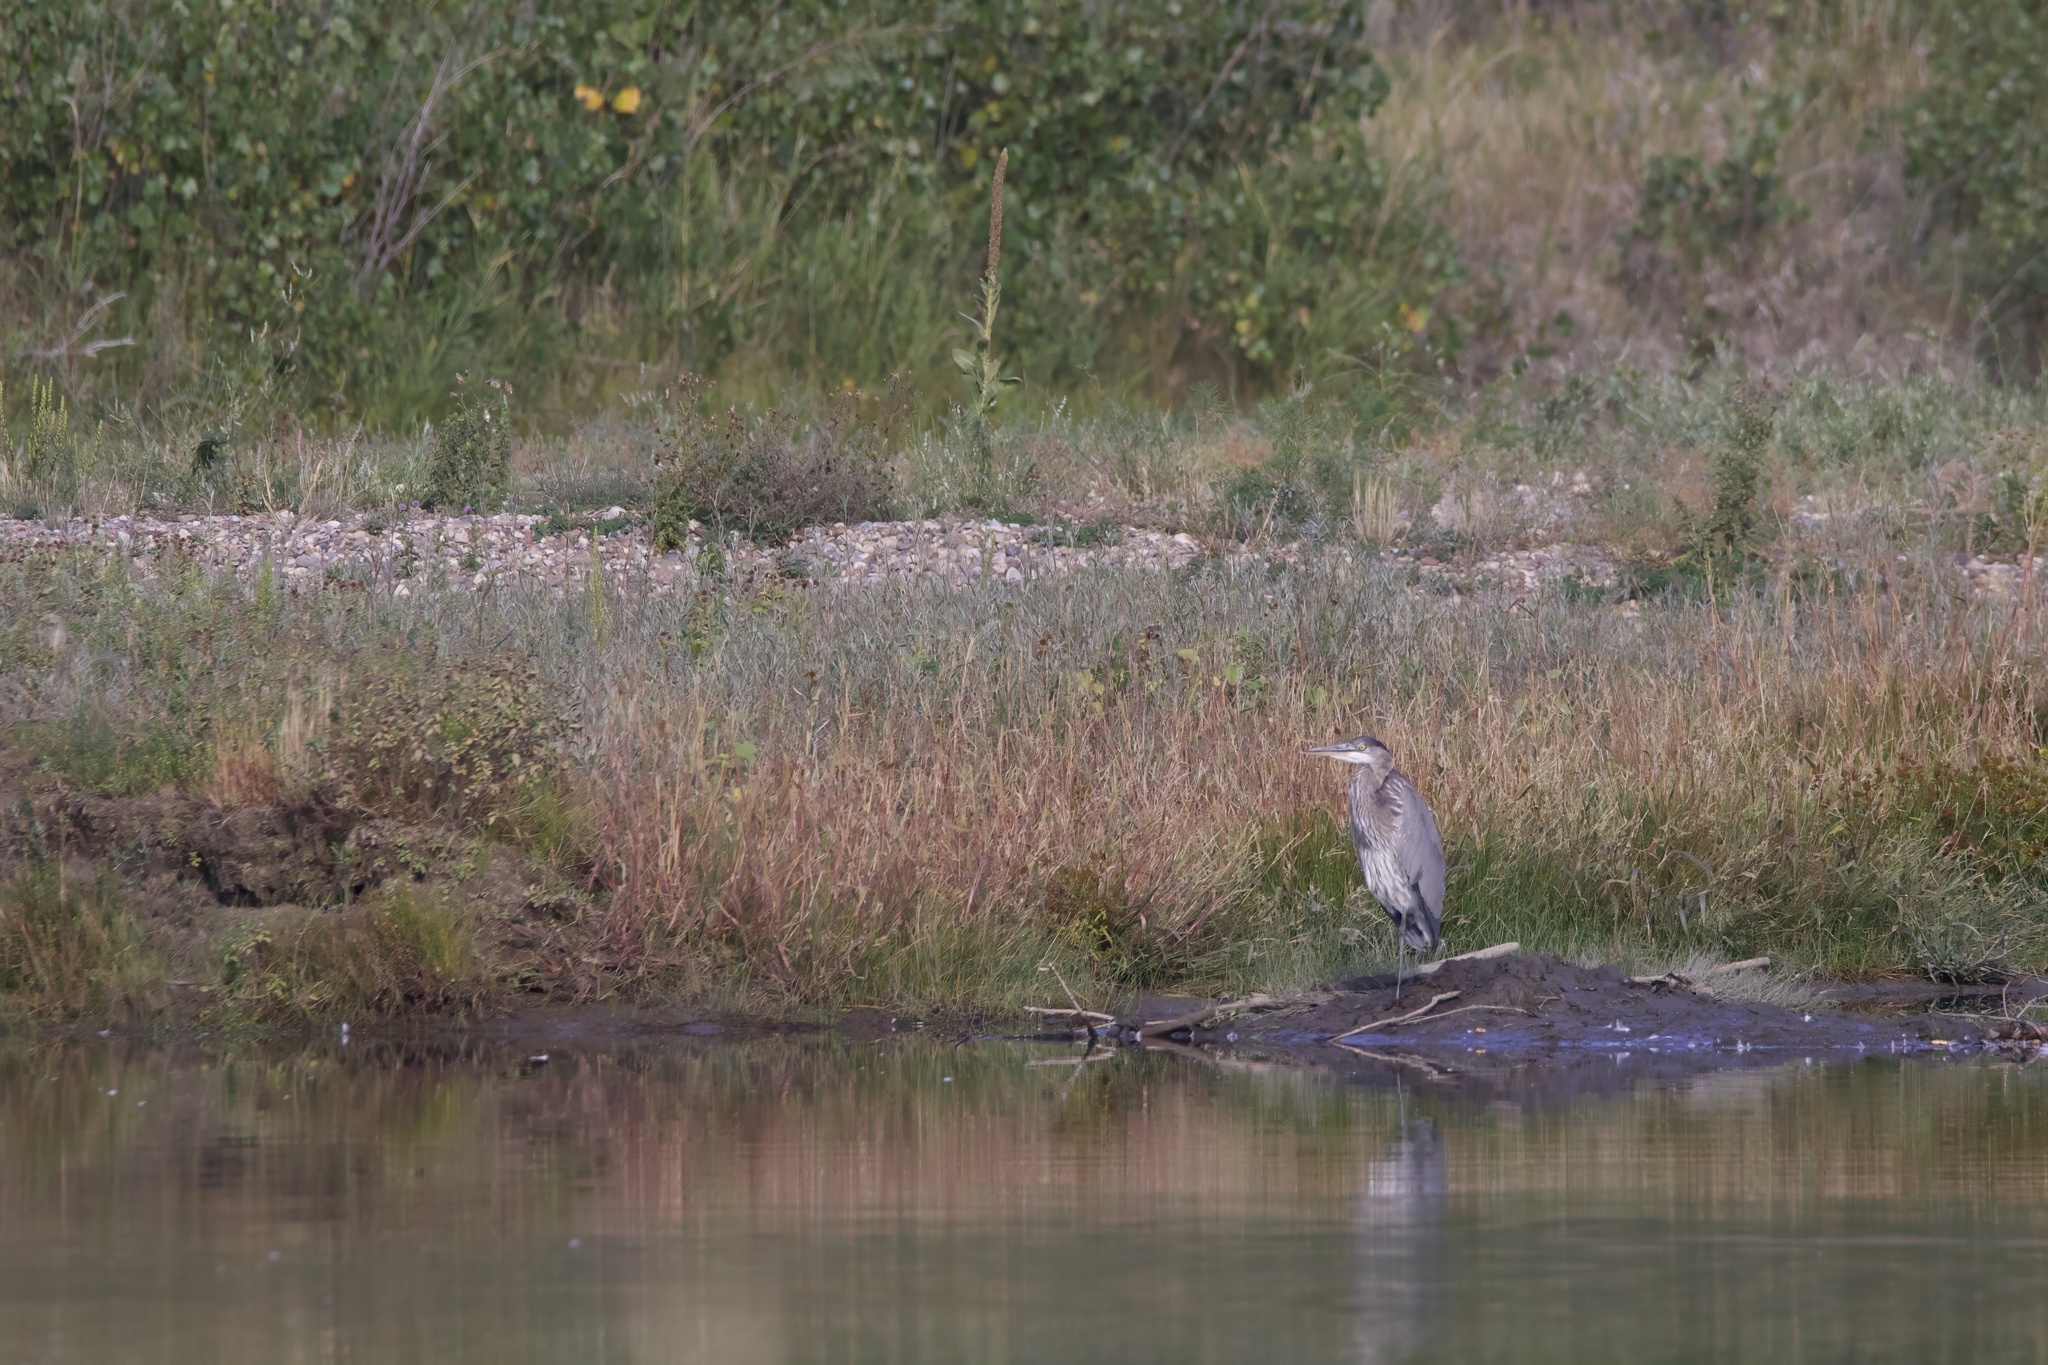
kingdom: Animalia
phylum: Chordata
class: Aves
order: Pelecaniformes
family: Ardeidae
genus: Ardea
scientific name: Ardea herodias
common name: Great blue heron
